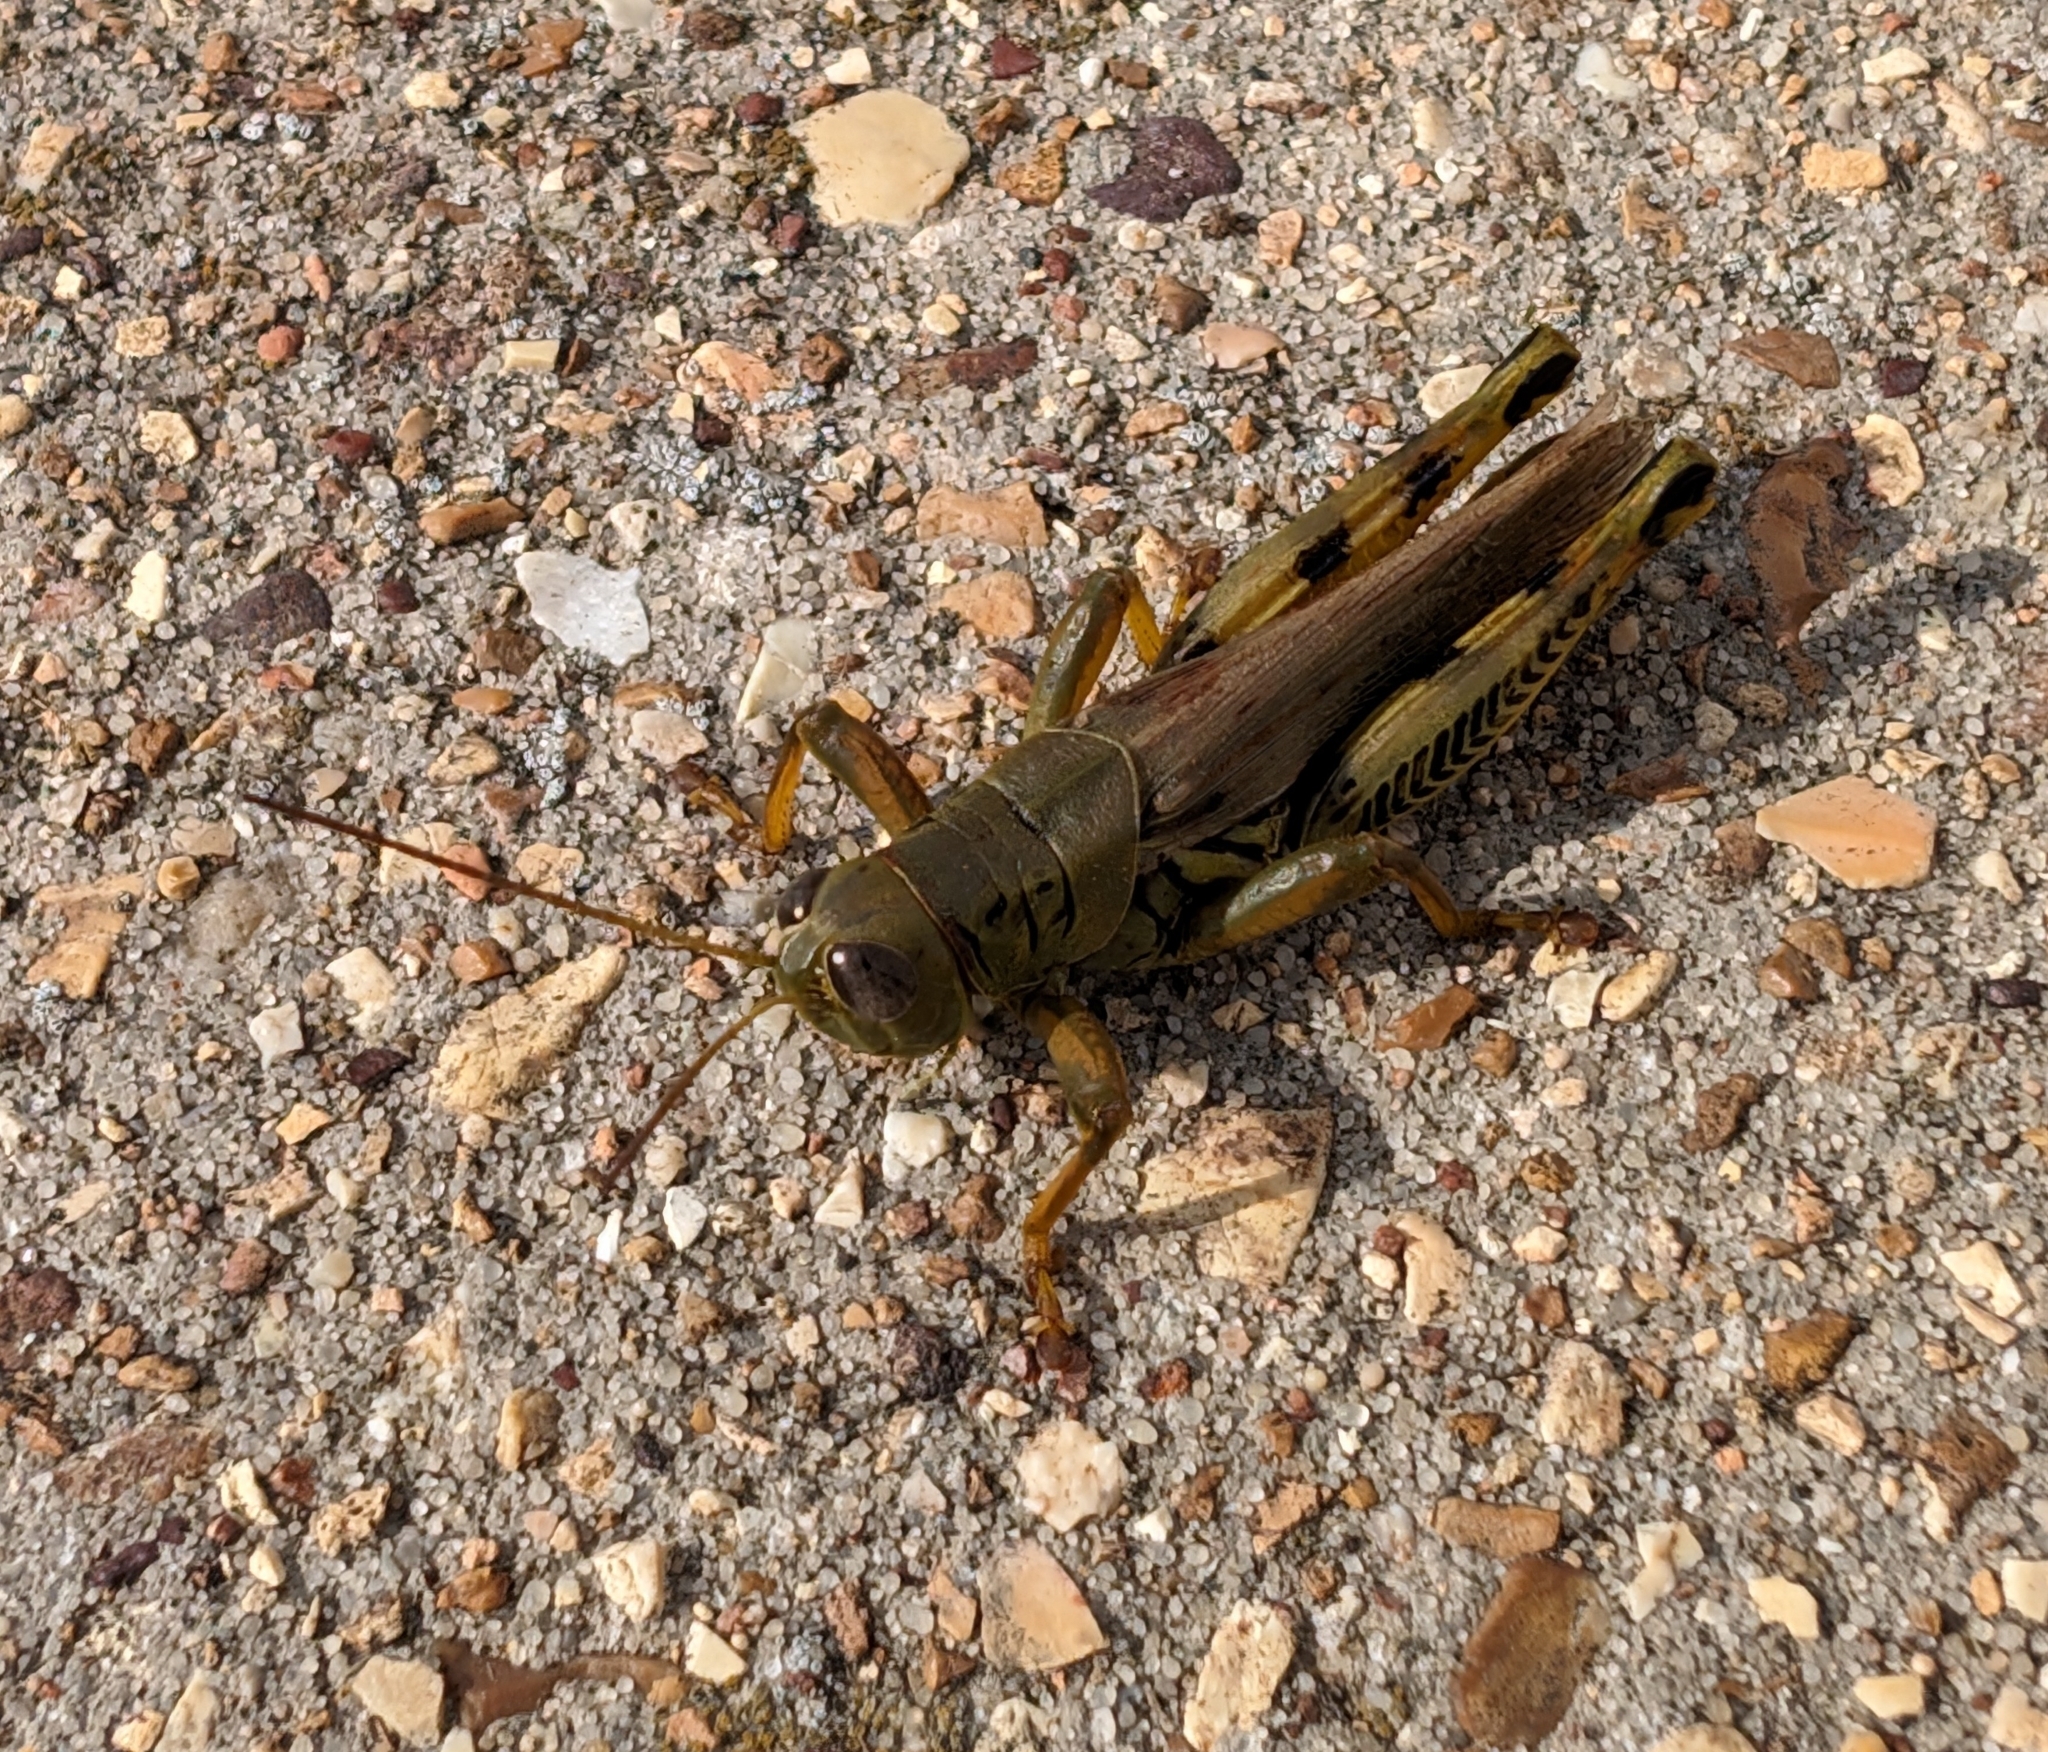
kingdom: Animalia
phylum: Arthropoda
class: Insecta
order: Orthoptera
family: Acrididae
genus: Melanoplus
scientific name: Melanoplus differentialis
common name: Differential grasshopper
